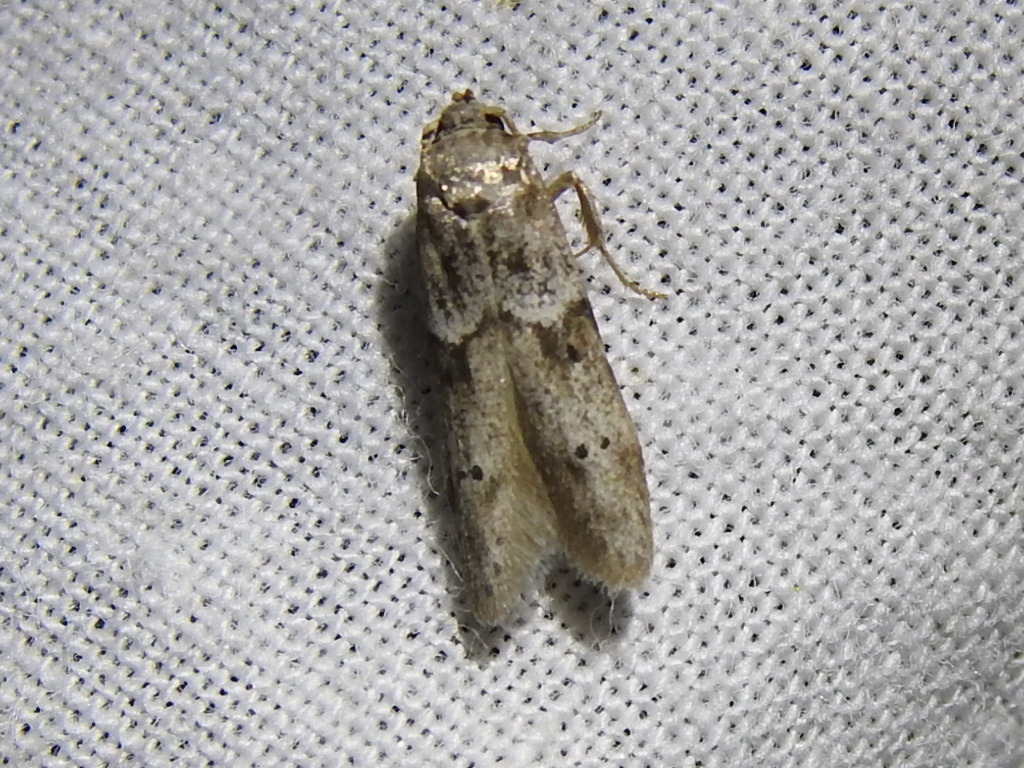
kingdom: Animalia
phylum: Arthropoda
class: Insecta
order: Lepidoptera
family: Blastobasidae
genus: Blastobasis
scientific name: Blastobasis glandulella
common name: Acorn moth
